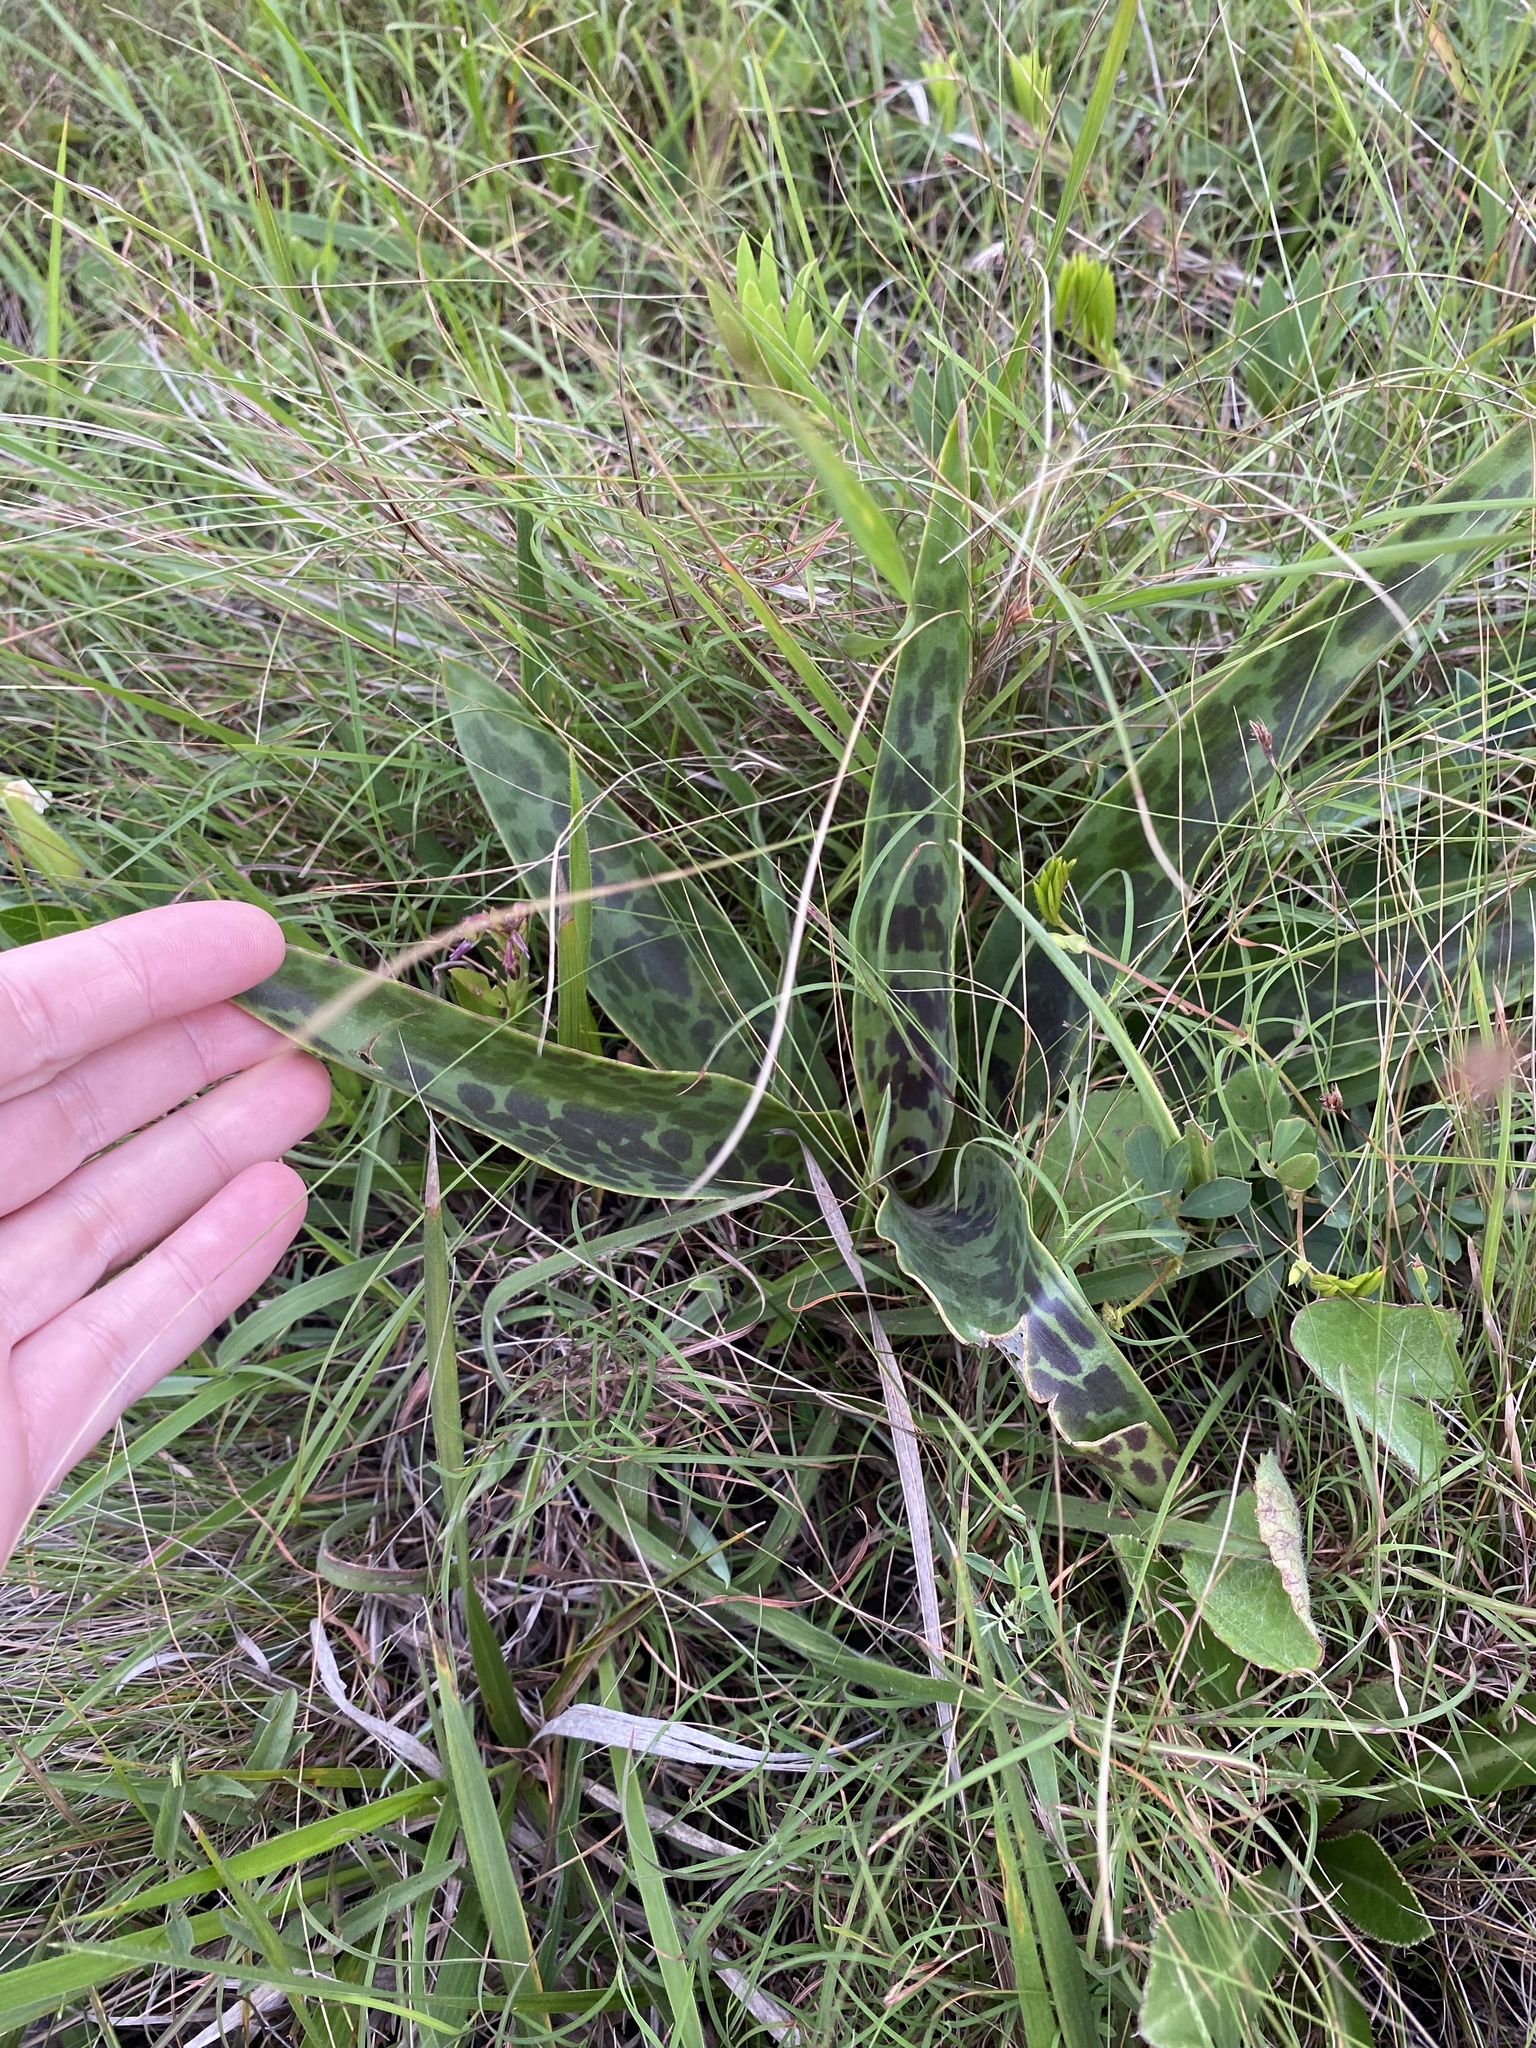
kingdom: Plantae
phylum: Tracheophyta
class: Liliopsida
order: Asparagales
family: Asparagaceae
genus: Ledebouria
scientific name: Ledebouria floribunda
